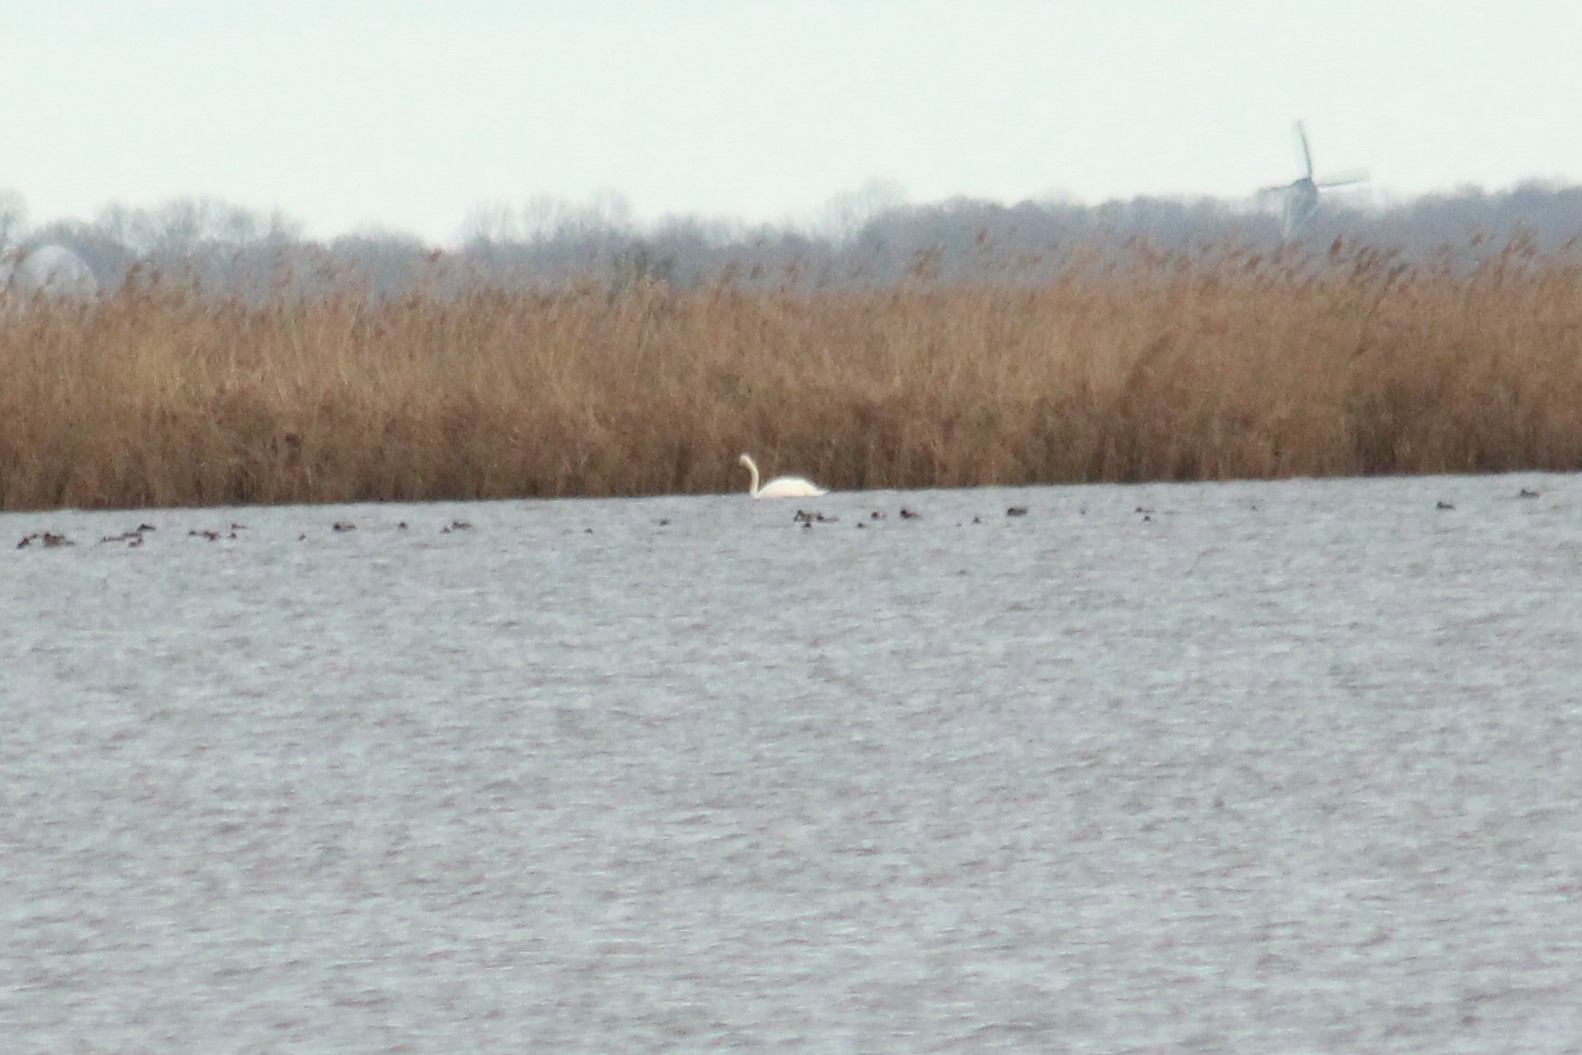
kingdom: Animalia
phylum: Chordata
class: Aves
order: Anseriformes
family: Anatidae
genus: Cygnus
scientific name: Cygnus olor
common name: Mute swan
